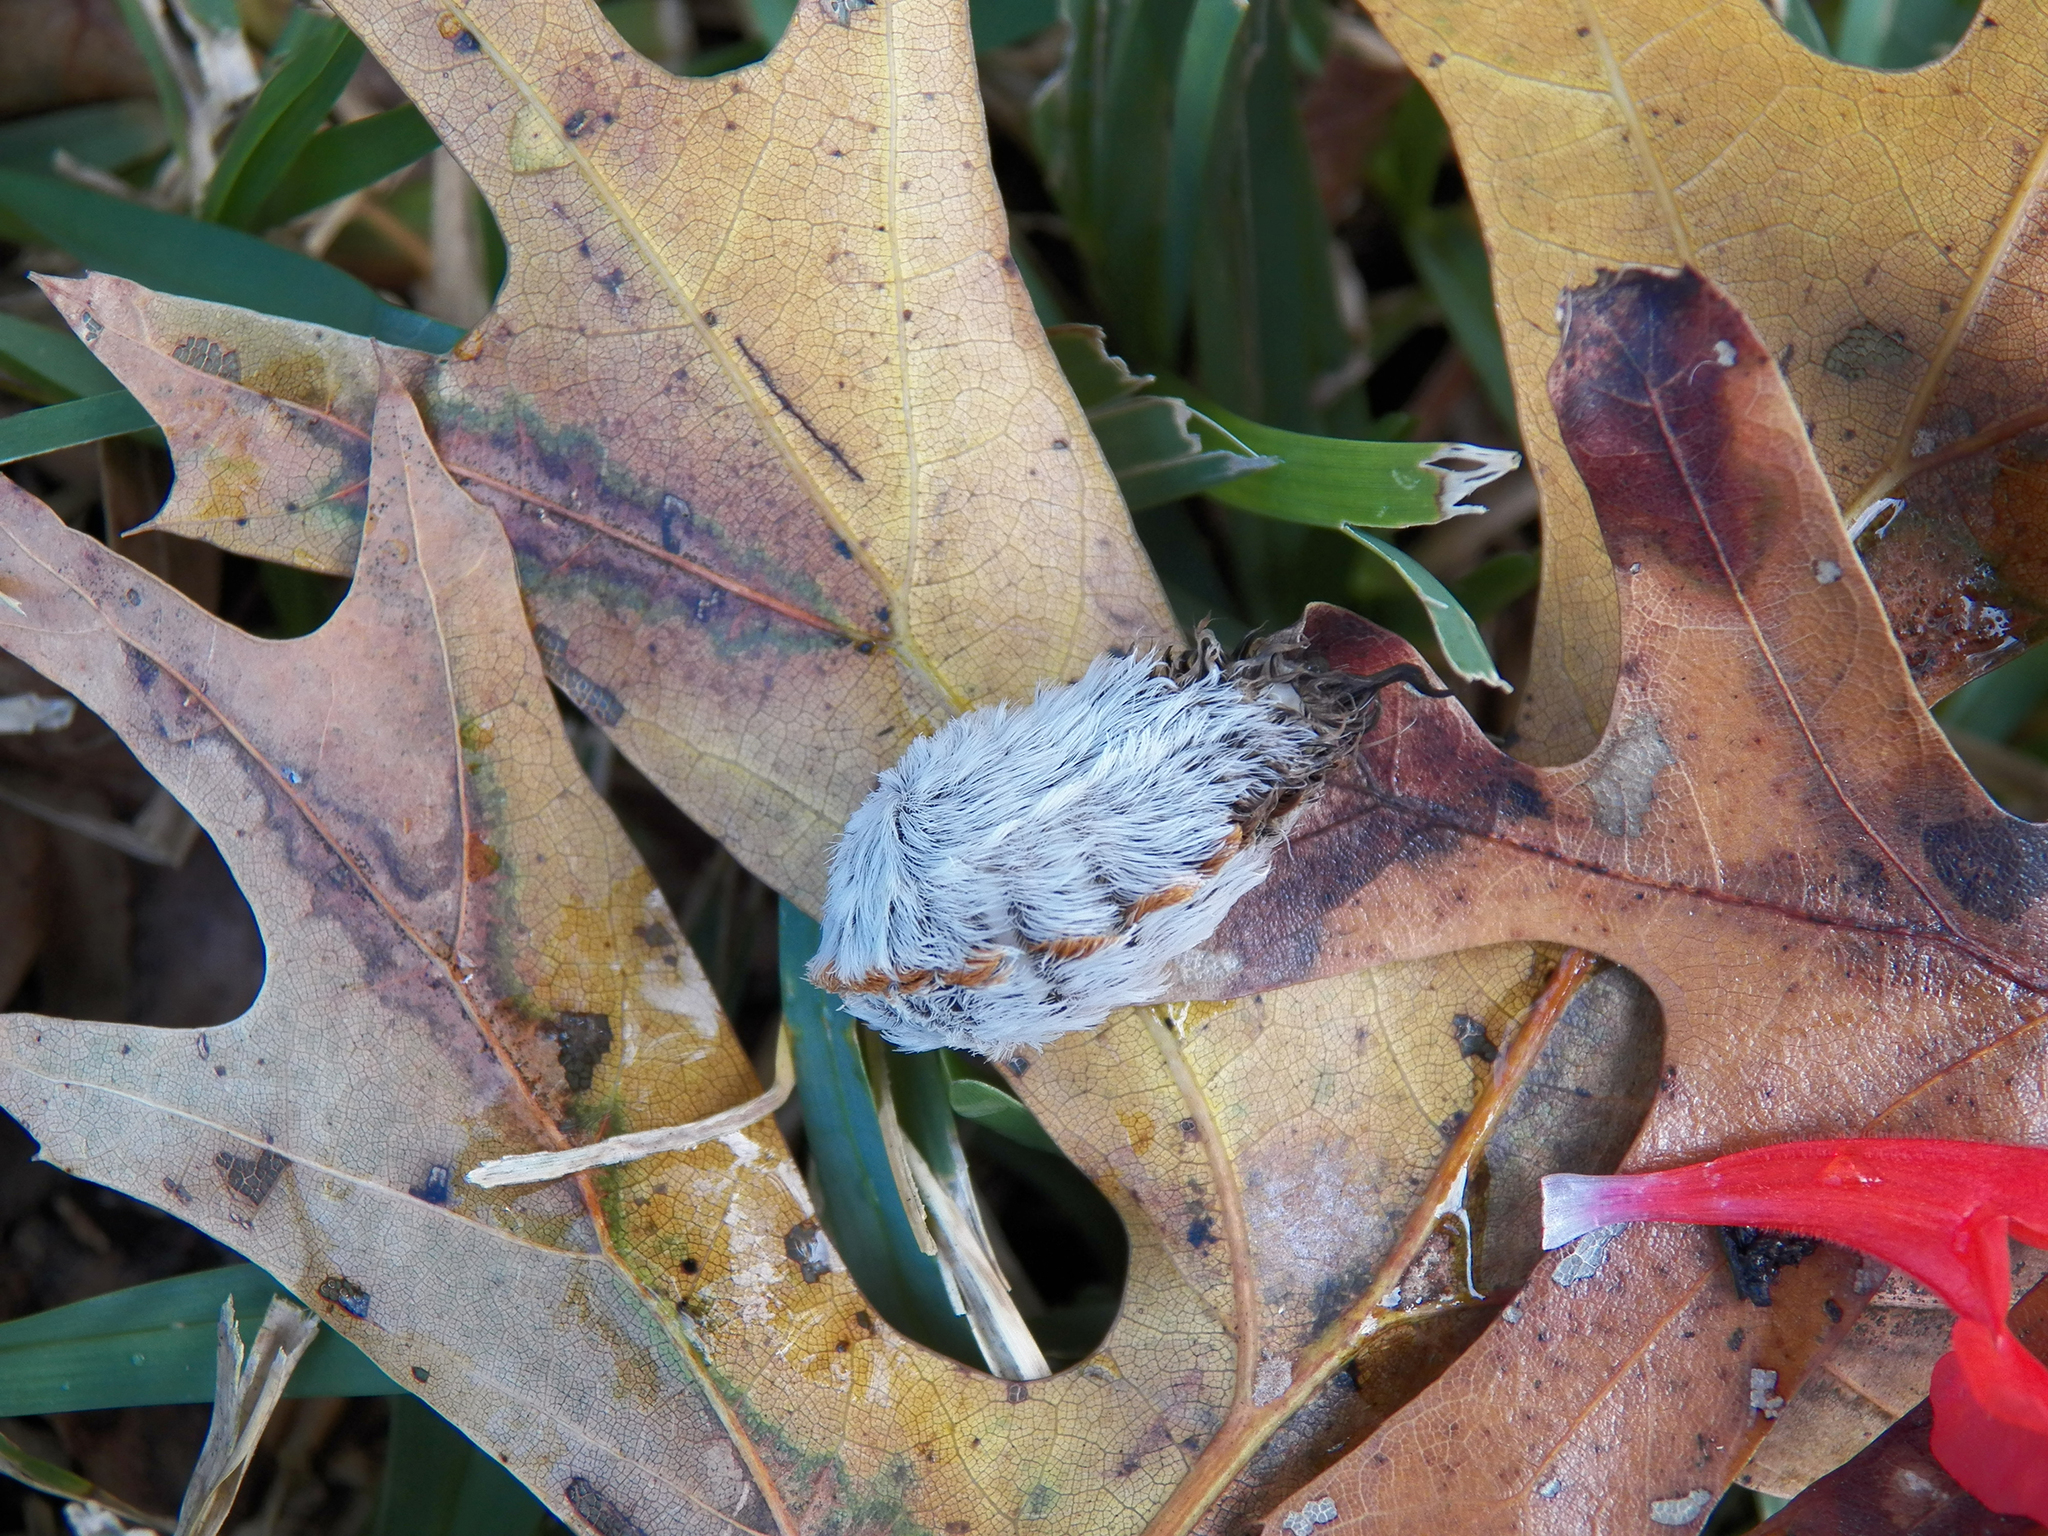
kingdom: Animalia
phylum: Arthropoda
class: Insecta
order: Lepidoptera
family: Megalopygidae
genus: Megalopyge
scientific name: Megalopyge opercularis
